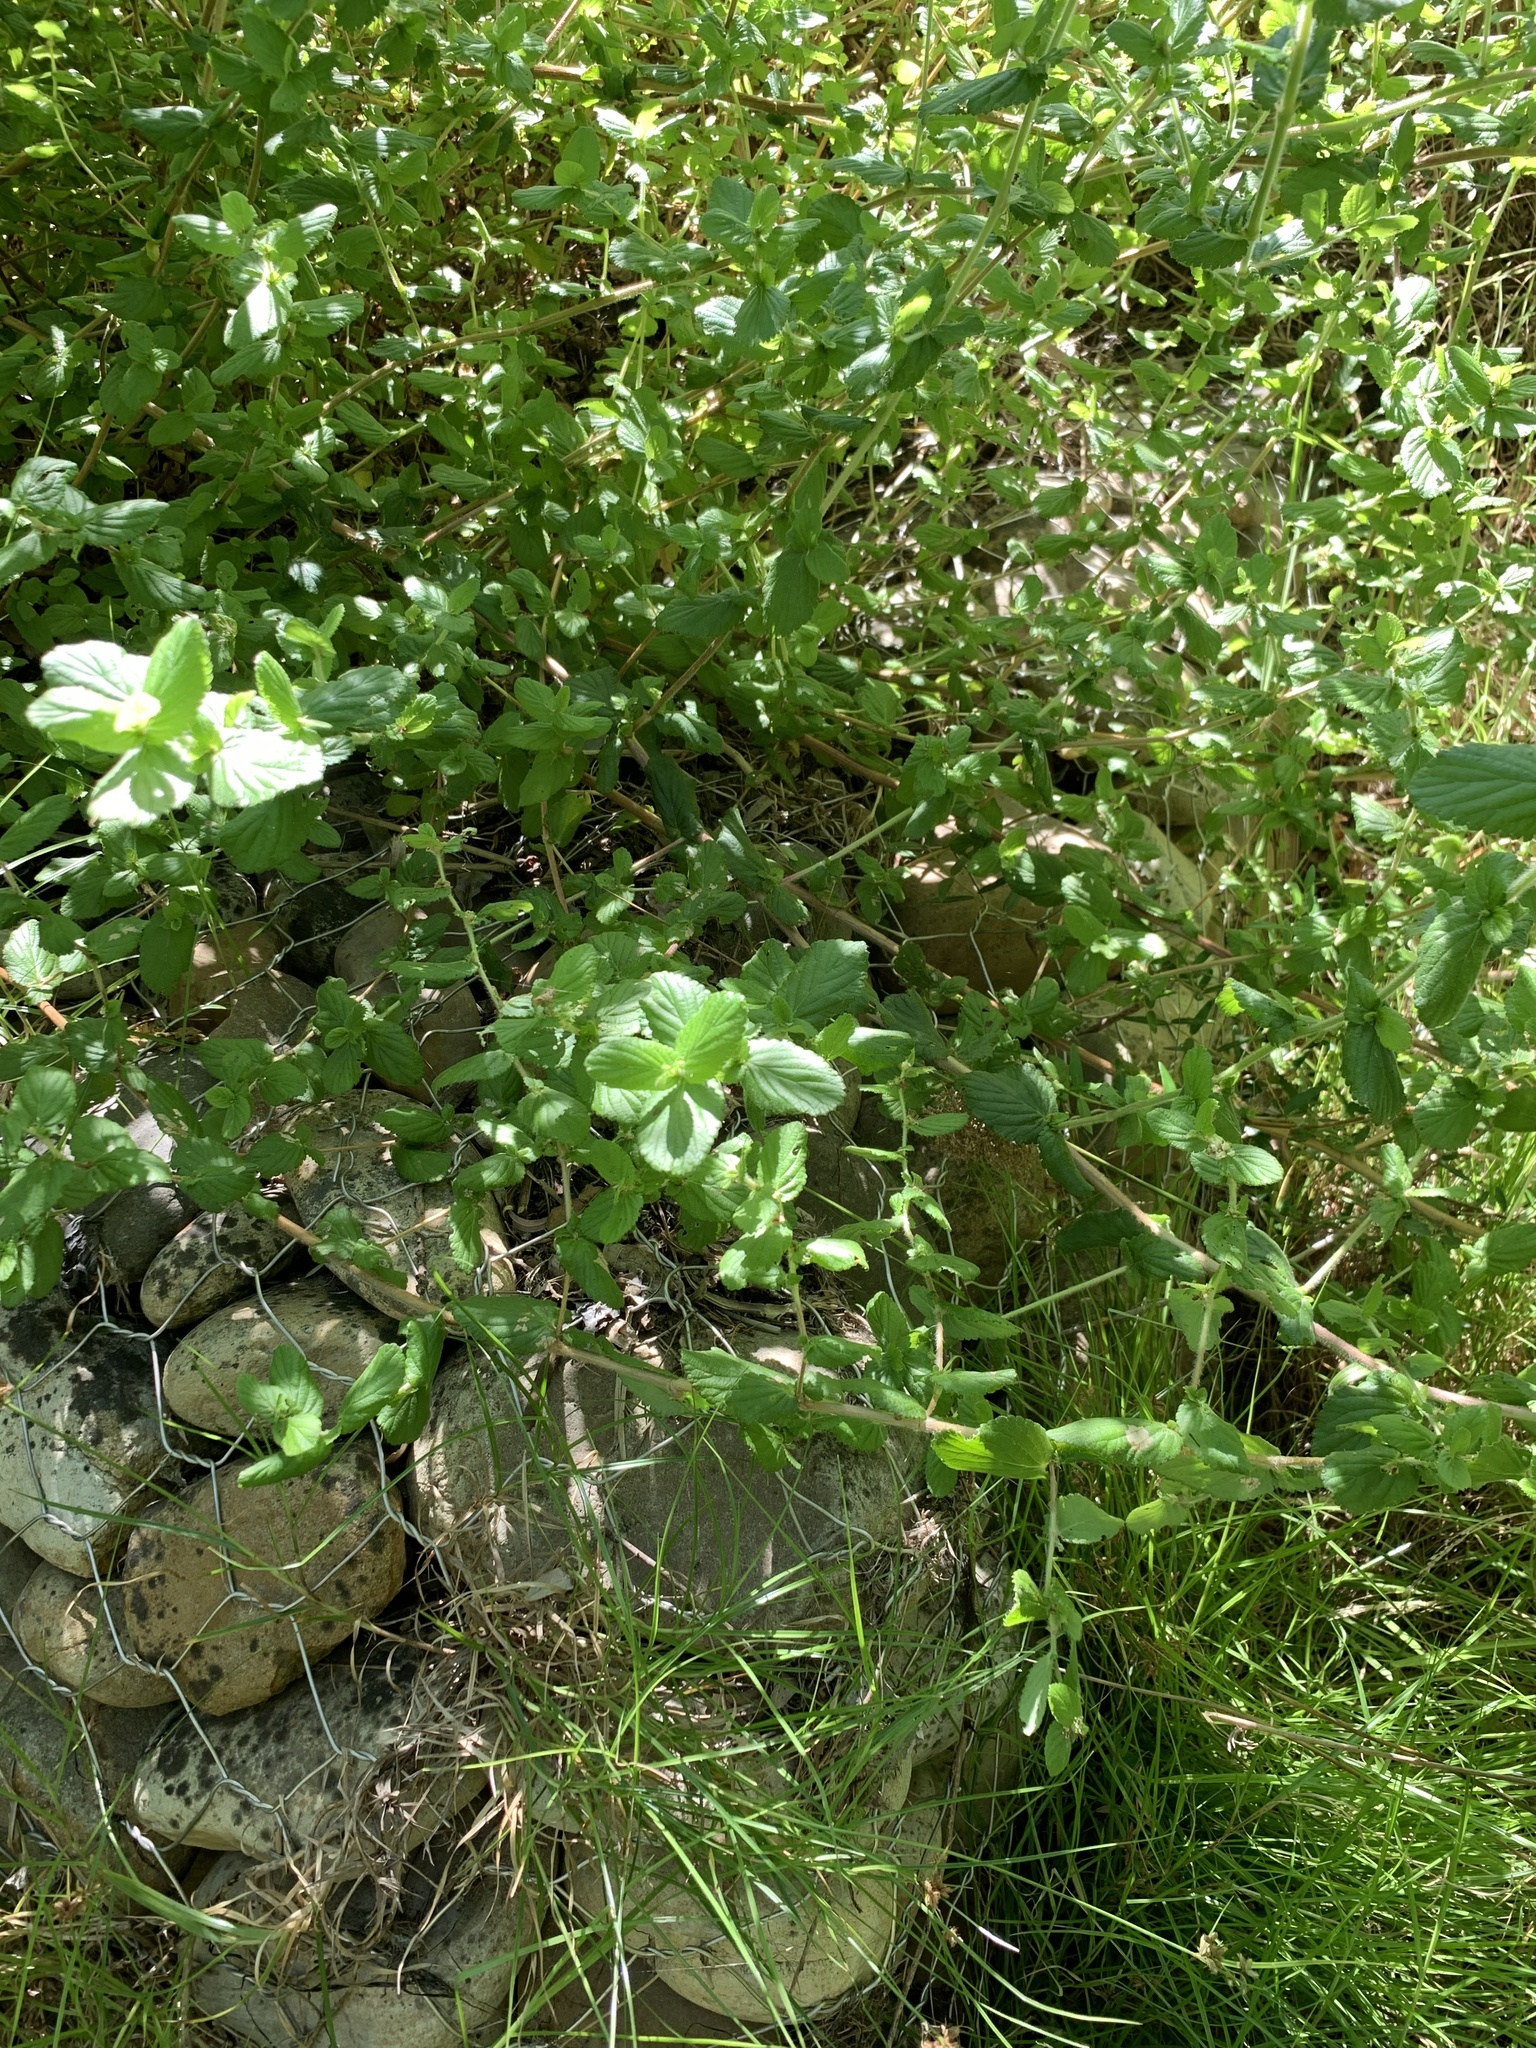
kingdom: Plantae
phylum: Tracheophyta
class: Magnoliopsida
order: Rosales
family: Rosaceae
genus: Cliffortia
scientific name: Cliffortia odorata
